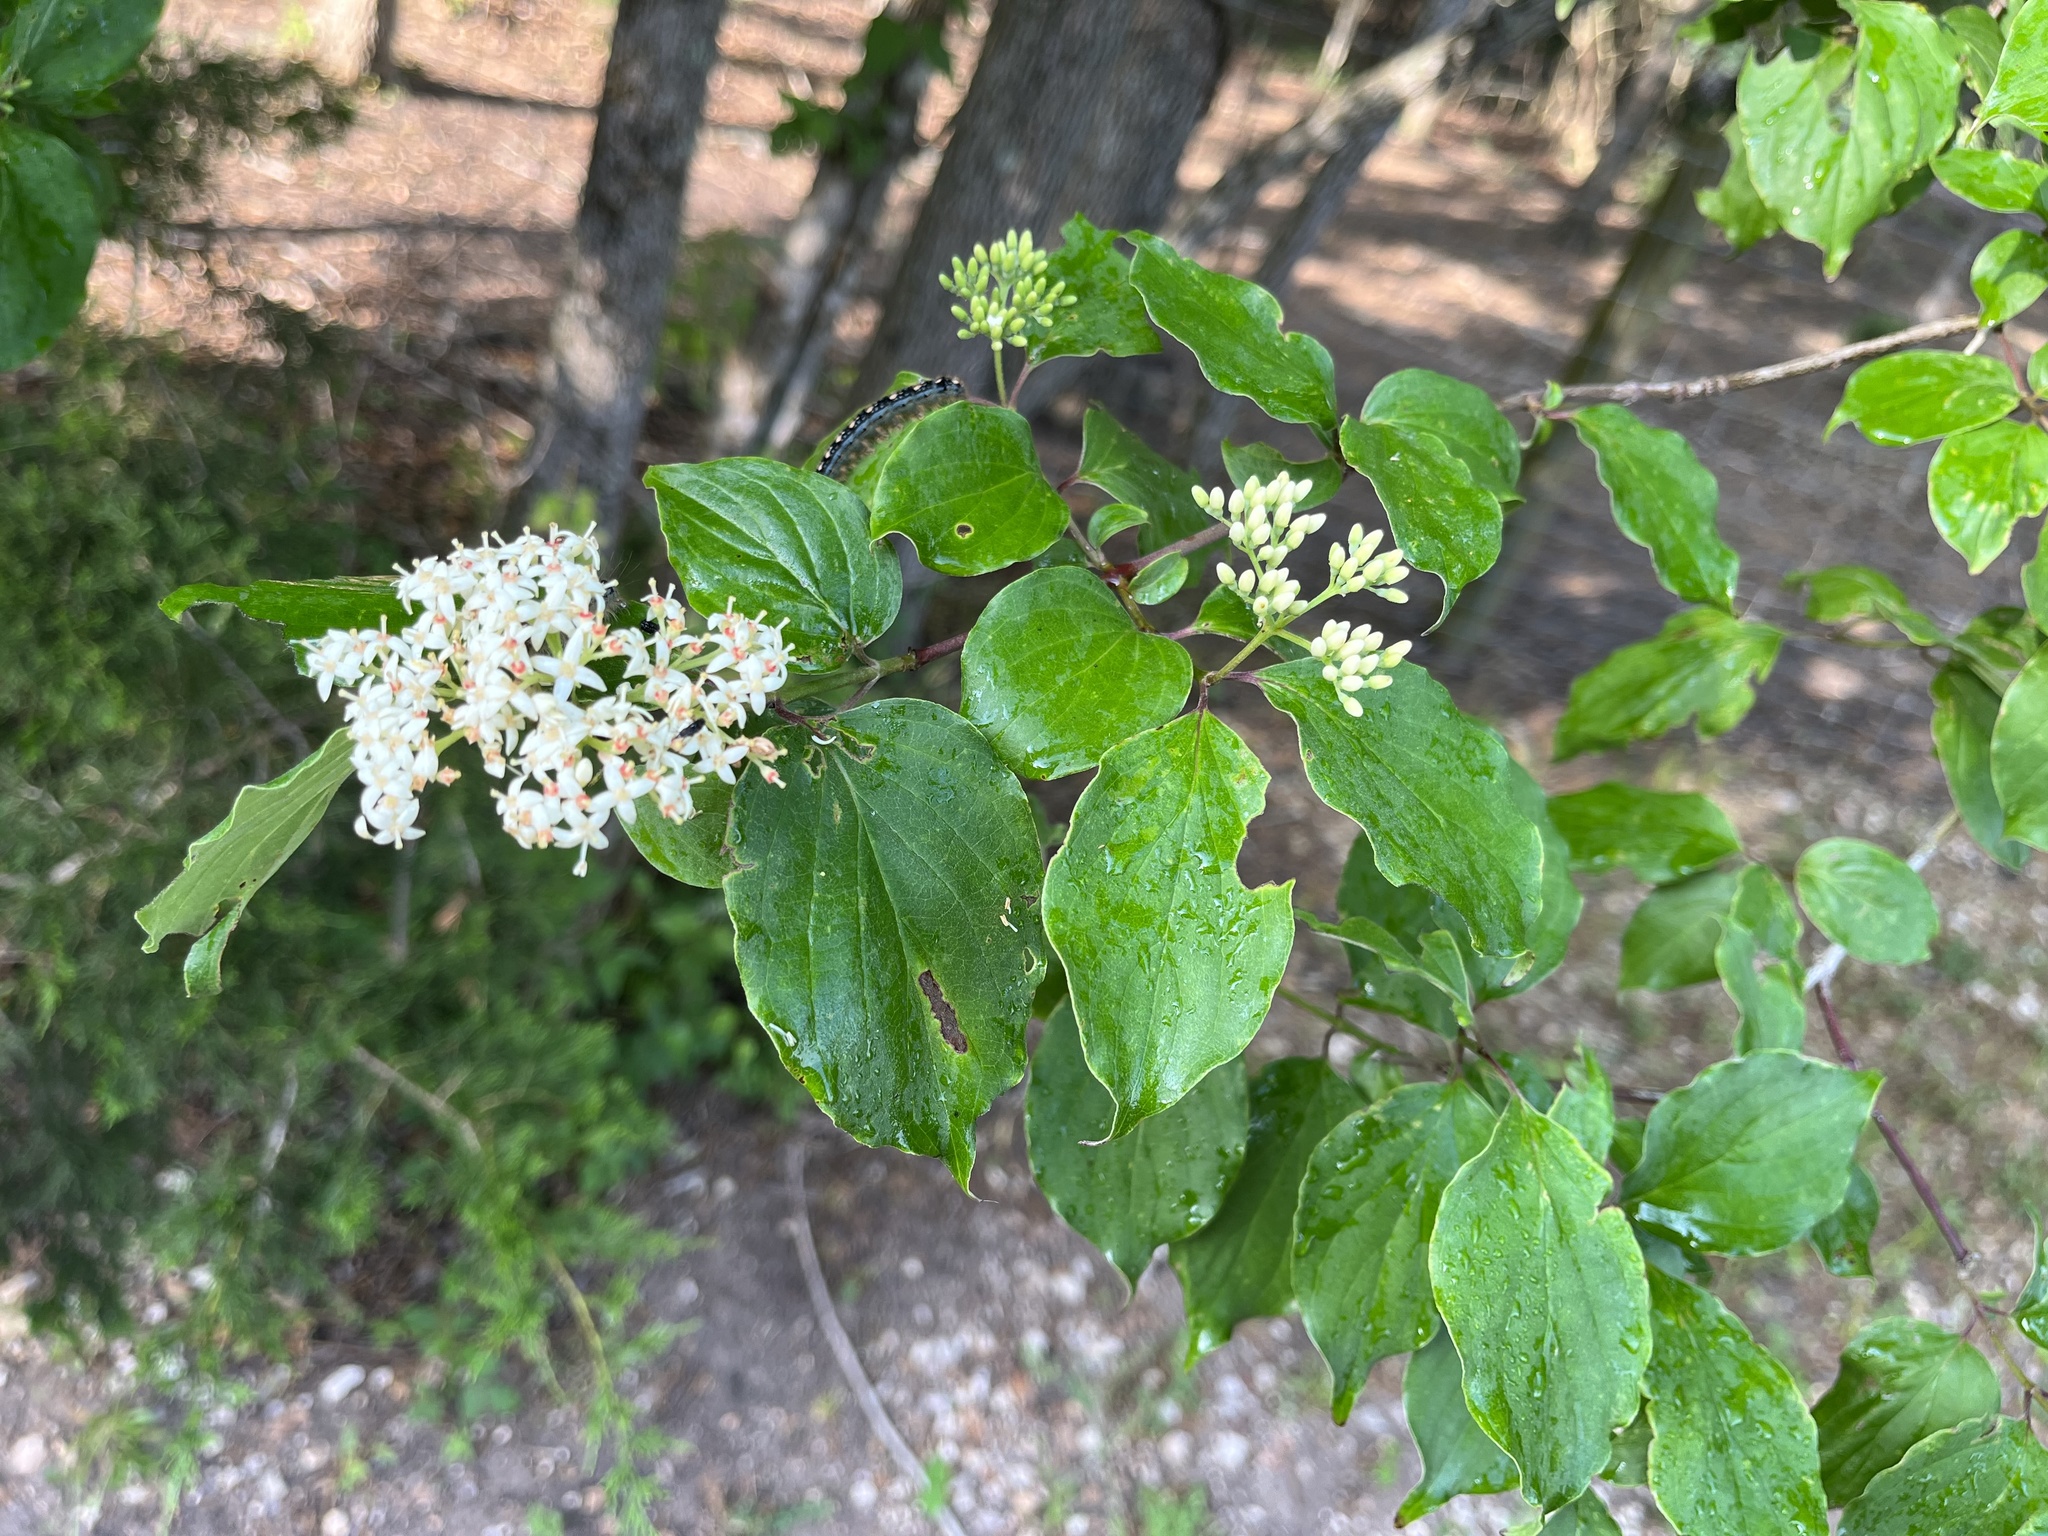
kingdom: Plantae
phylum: Tracheophyta
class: Magnoliopsida
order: Cornales
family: Cornaceae
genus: Cornus
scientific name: Cornus drummondii
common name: Rough-leaf dogwood
